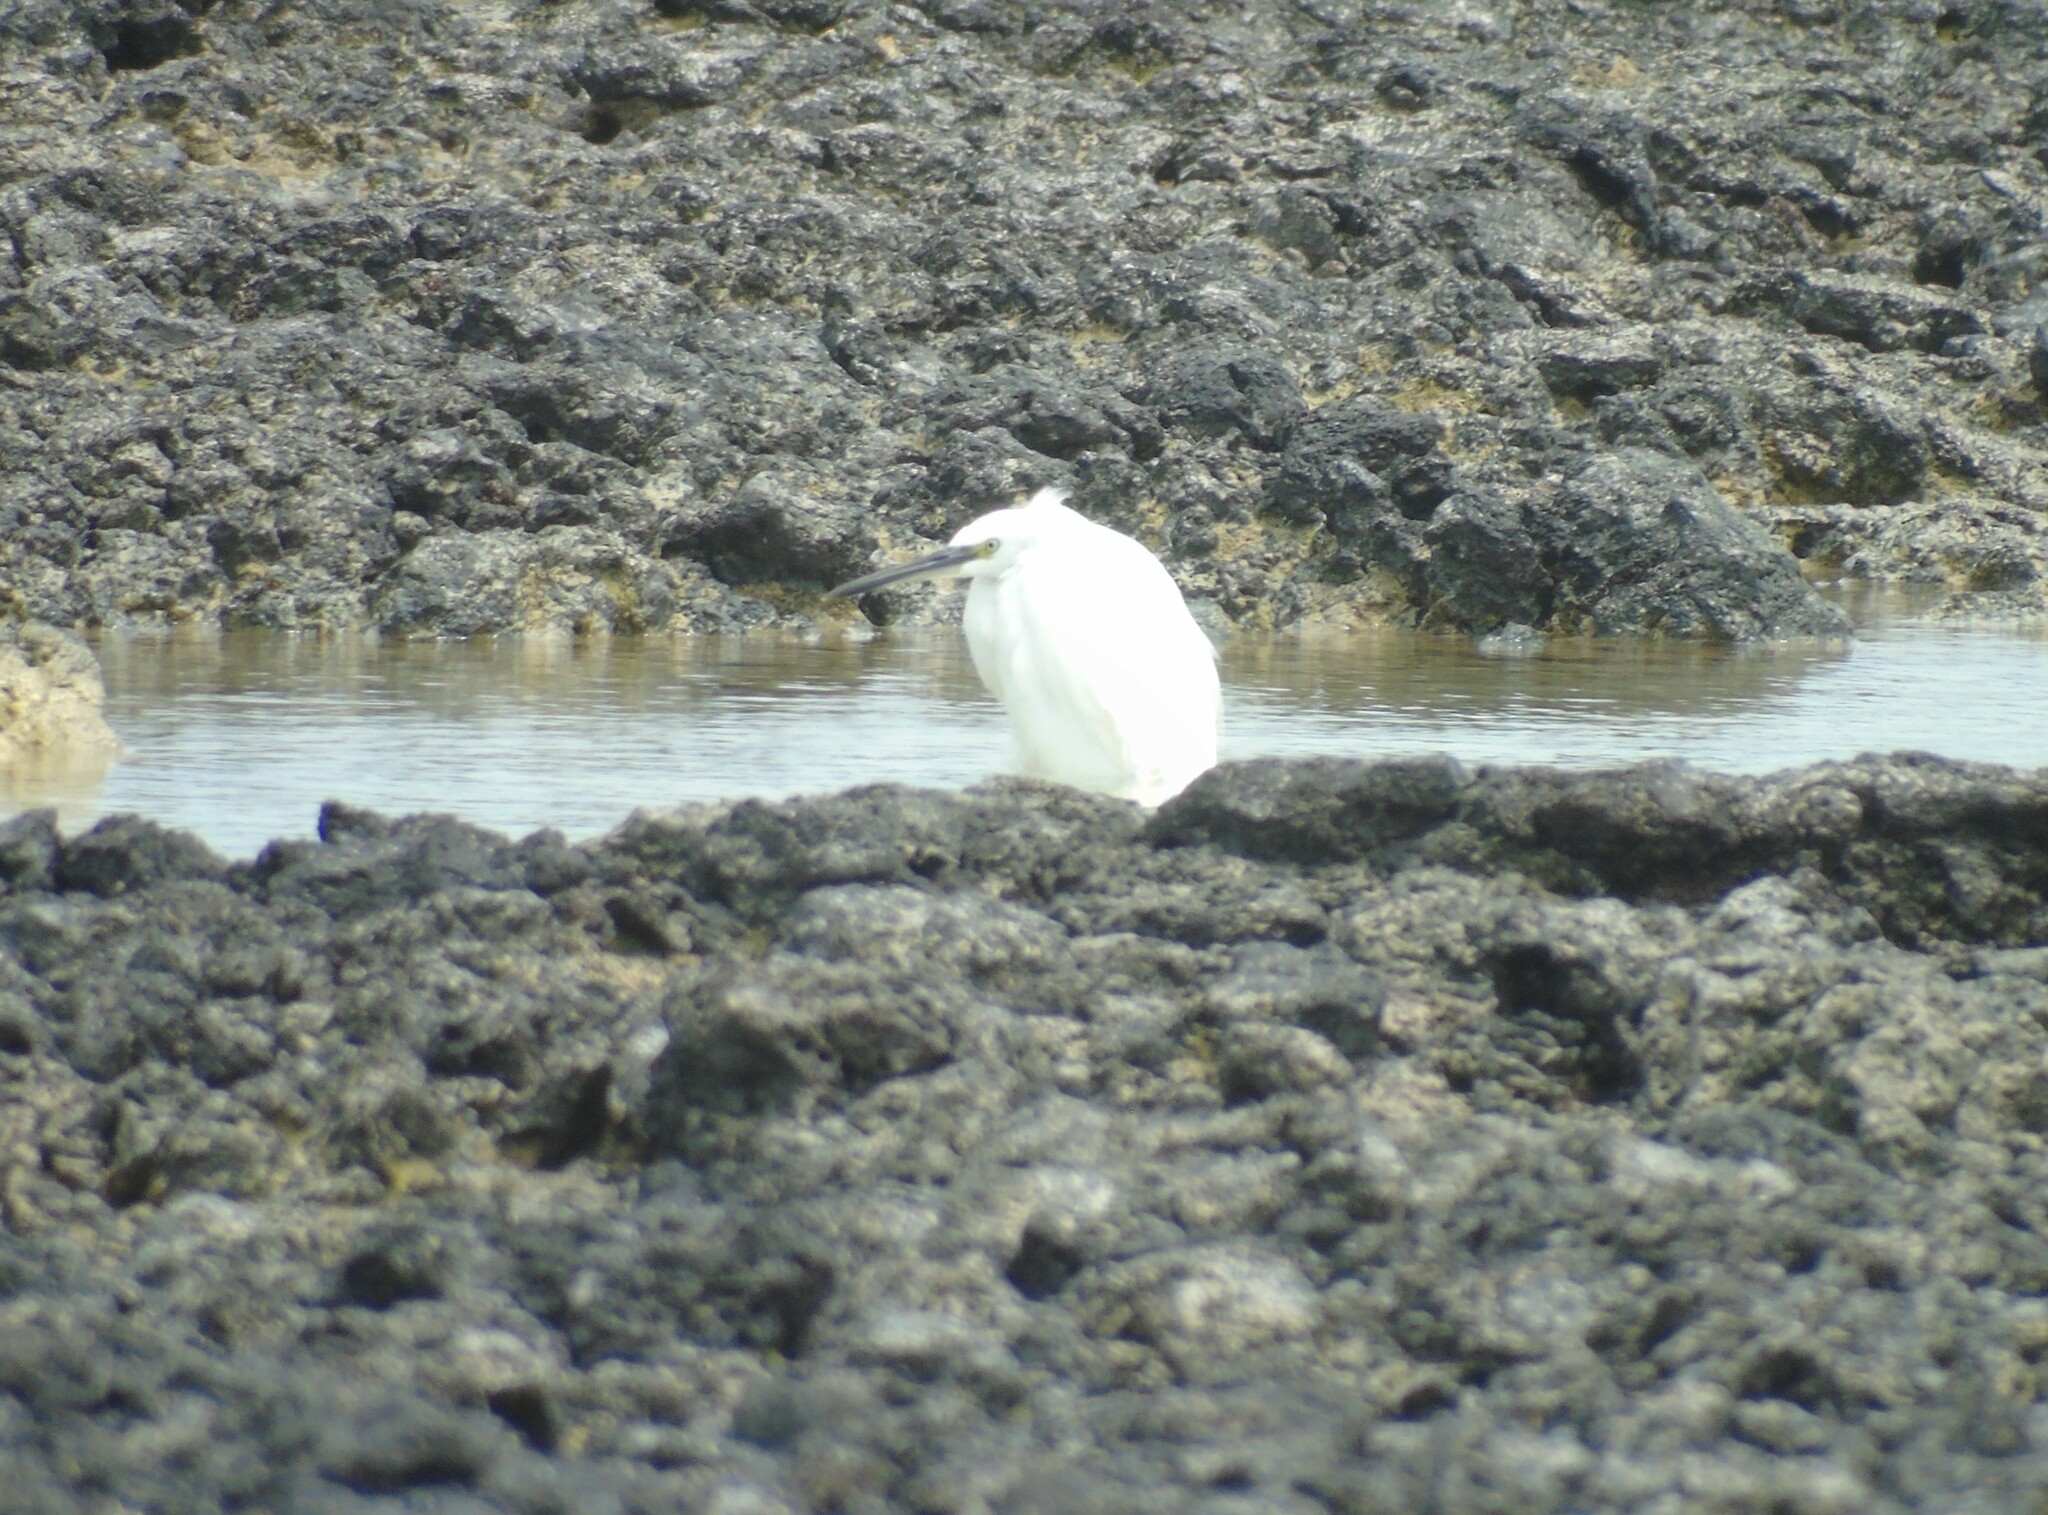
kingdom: Animalia
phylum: Chordata
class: Aves
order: Pelecaniformes
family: Ardeidae
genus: Egretta
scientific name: Egretta garzetta
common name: Little egret
